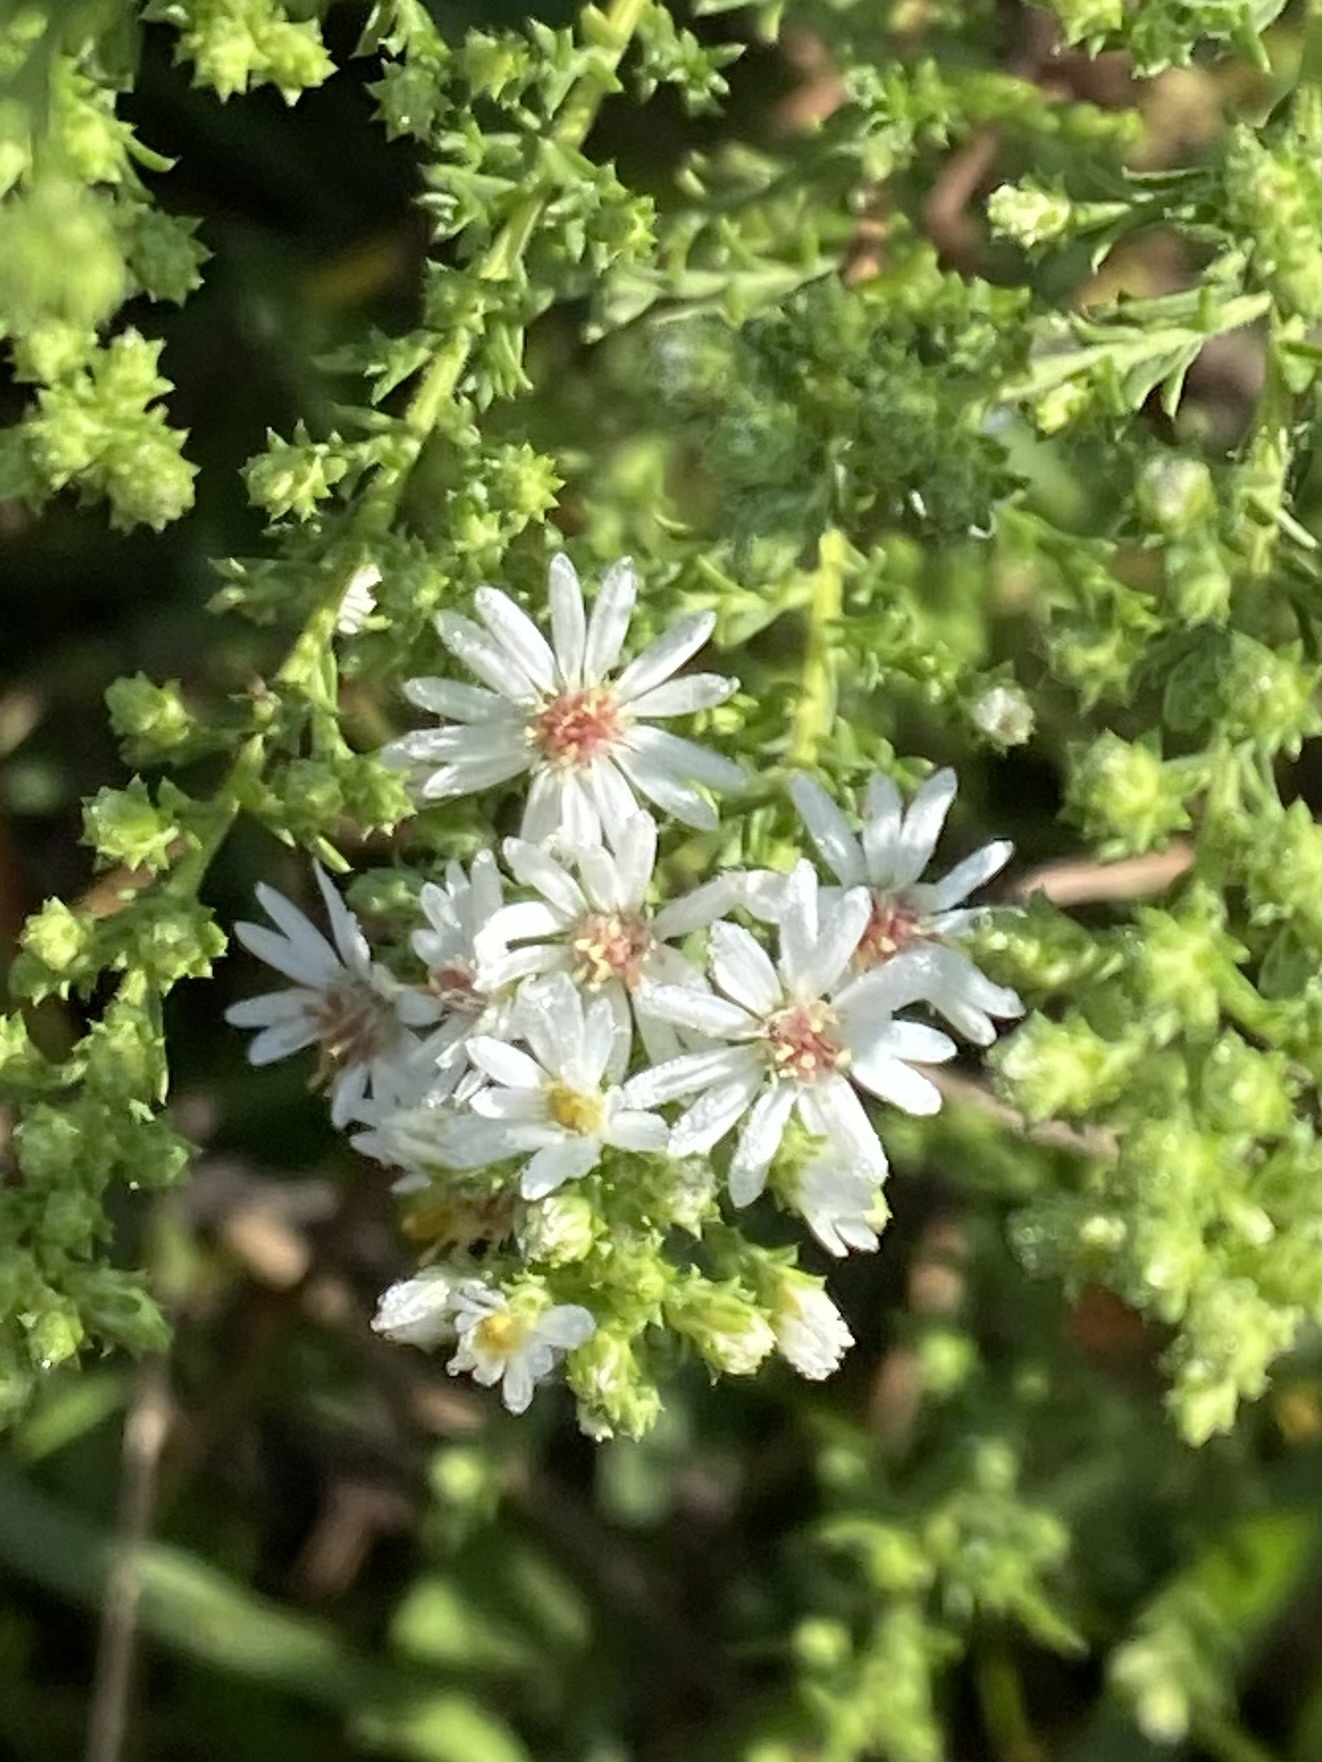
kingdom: Plantae
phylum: Tracheophyta
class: Magnoliopsida
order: Asterales
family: Asteraceae
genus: Symphyotrichum
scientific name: Symphyotrichum ericoides
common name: Heath aster
